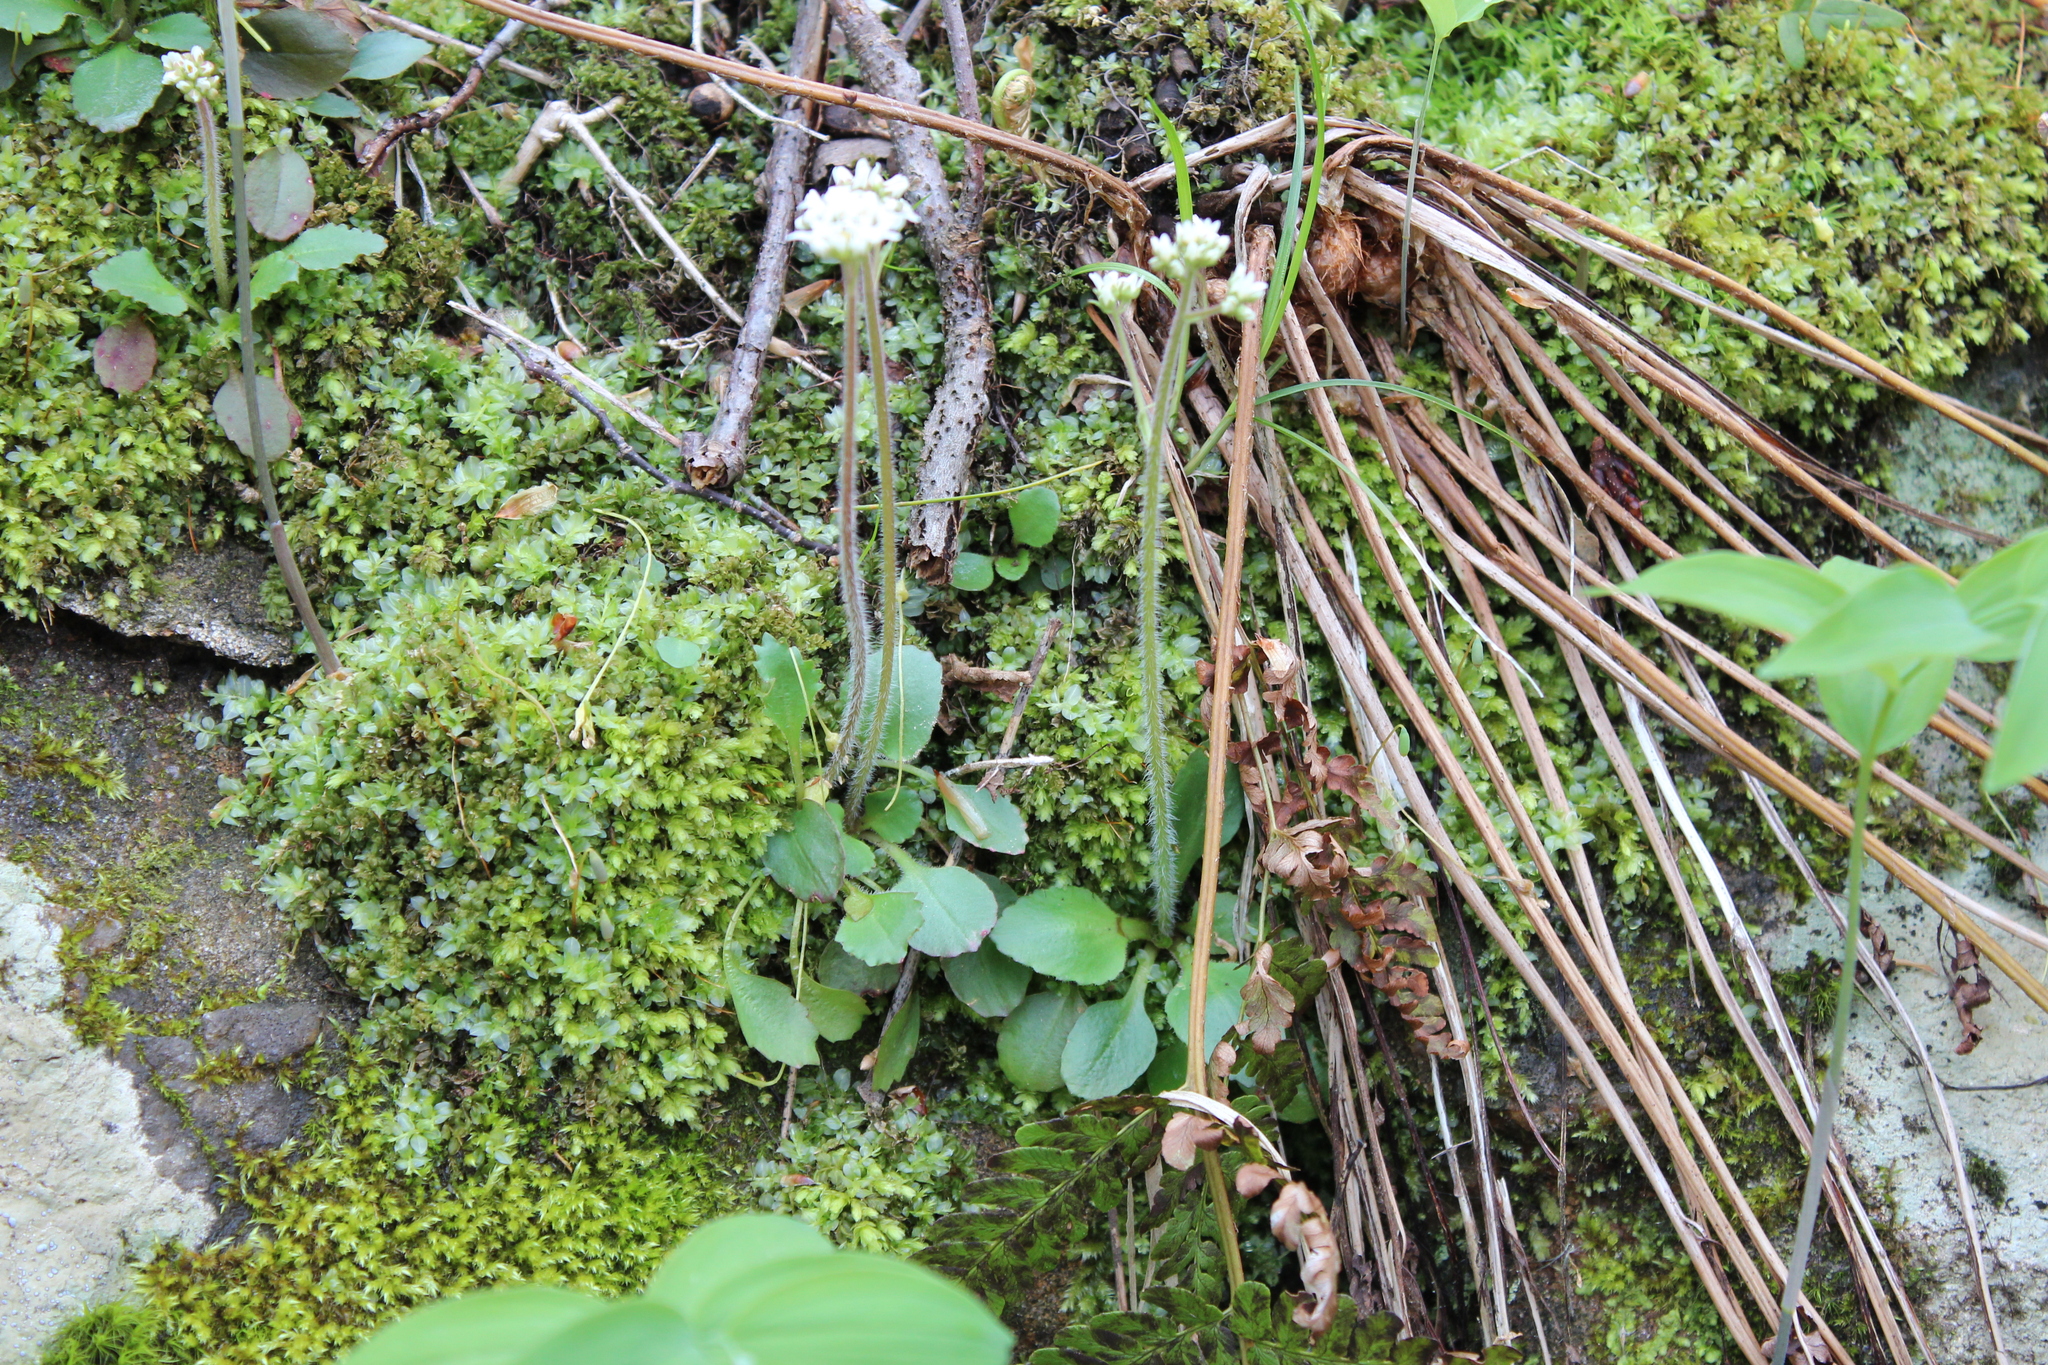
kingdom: Plantae
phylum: Tracheophyta
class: Magnoliopsida
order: Saxifragales
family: Saxifragaceae
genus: Micranthes
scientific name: Micranthes virginiensis
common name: Early saxifrage
